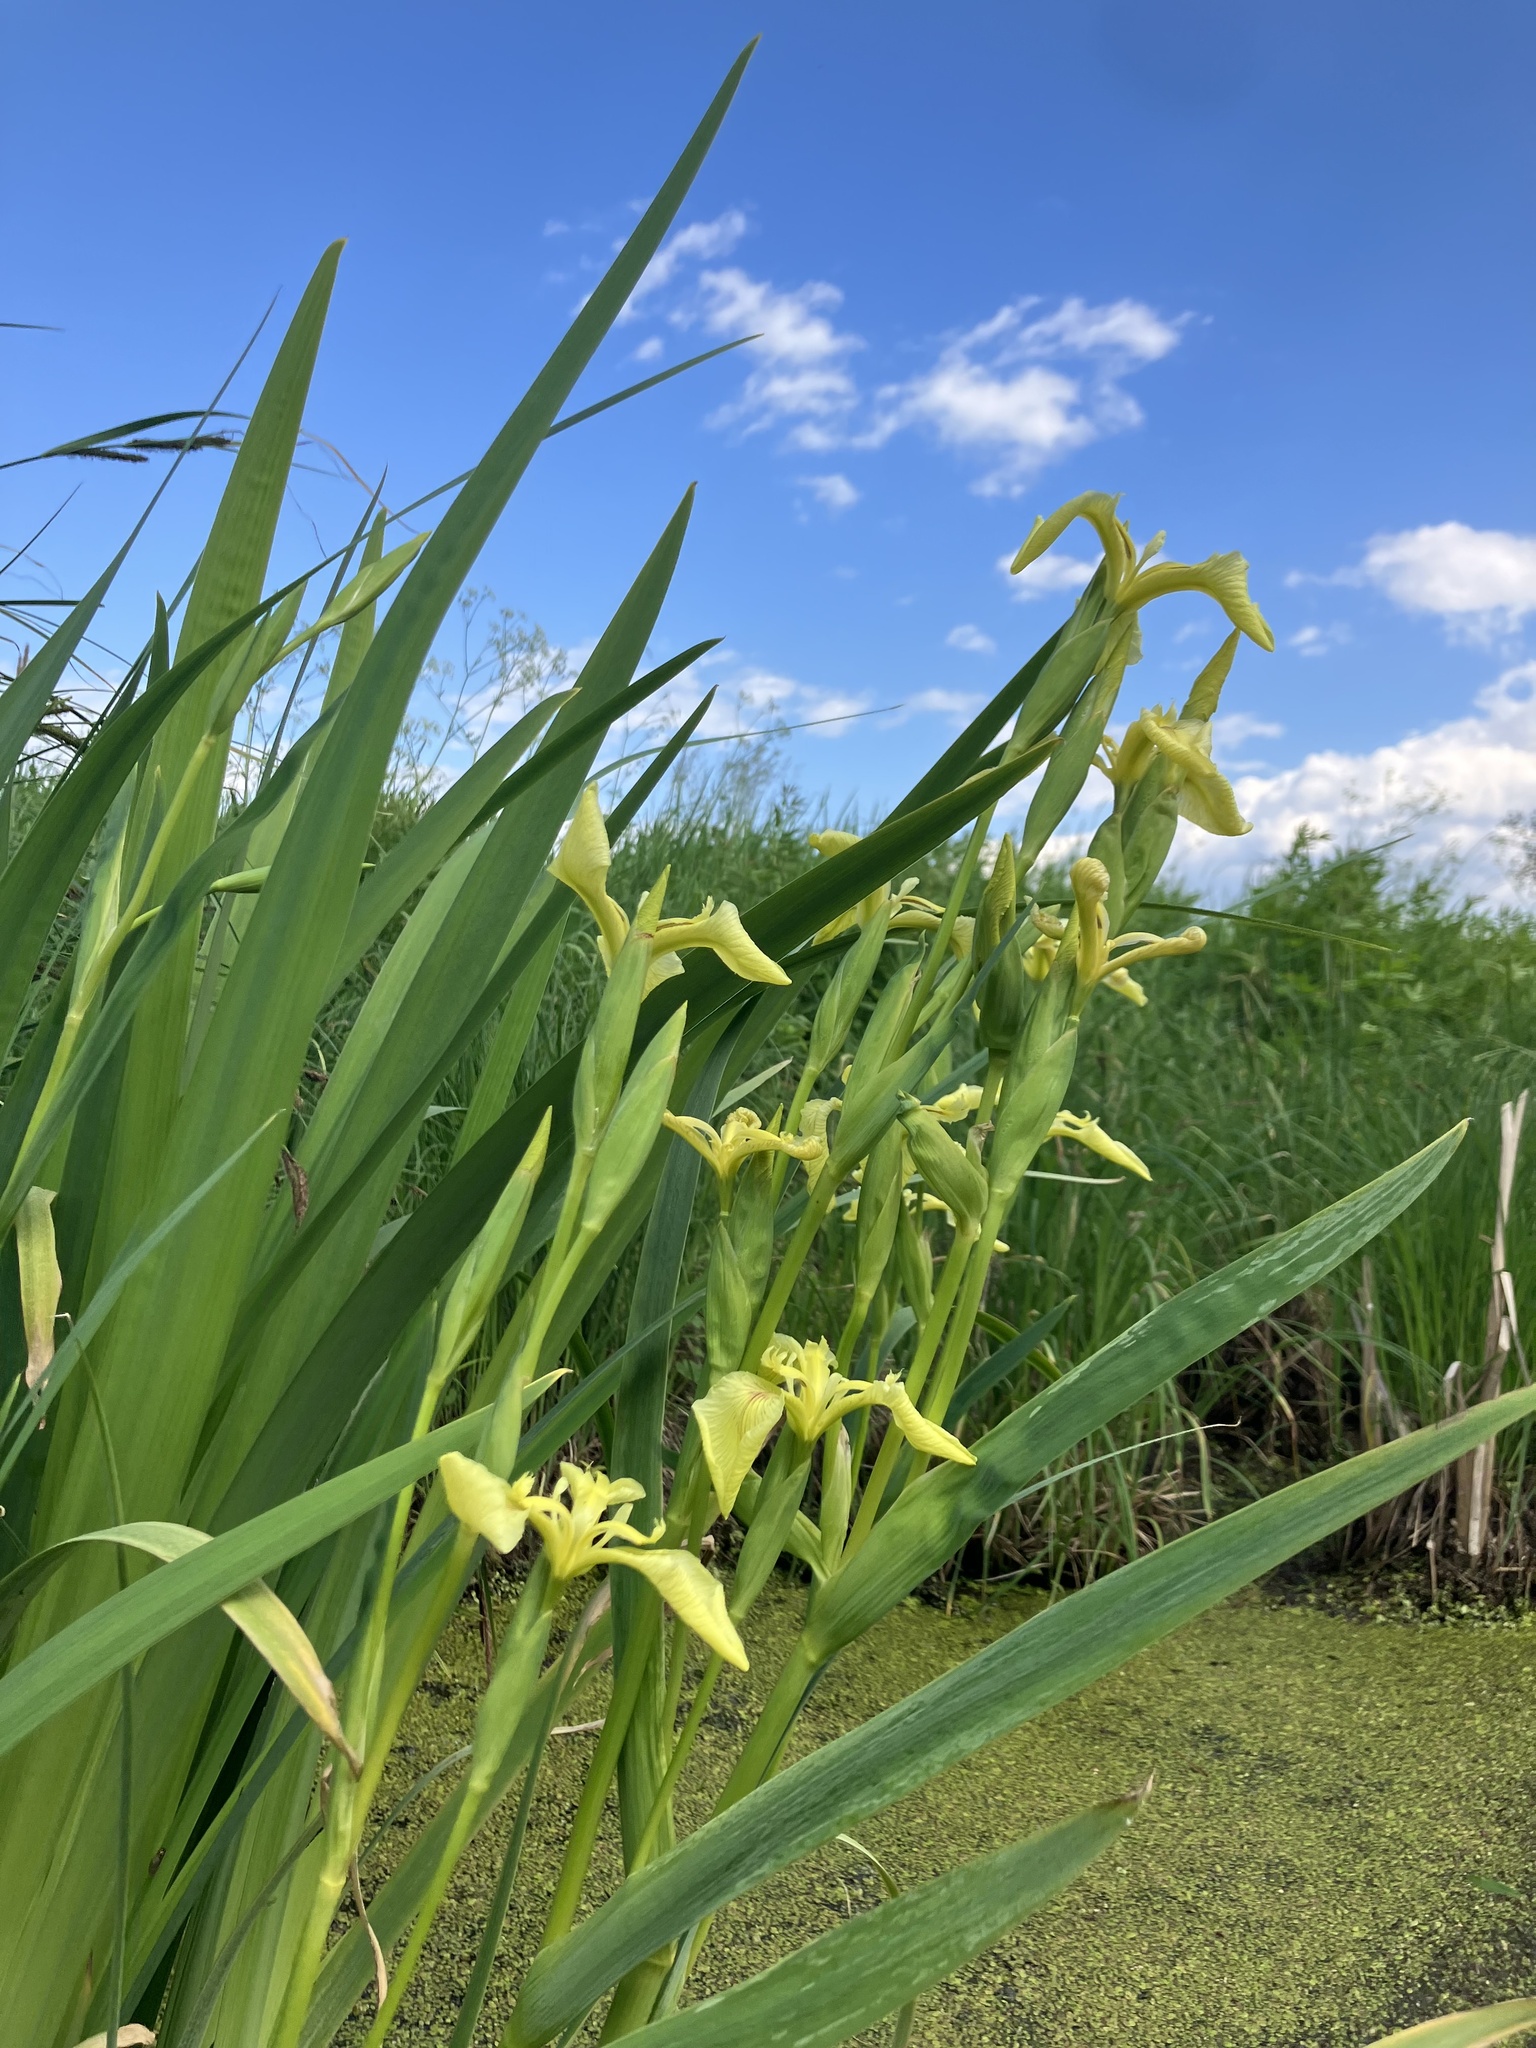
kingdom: Plantae
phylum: Tracheophyta
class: Liliopsida
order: Asparagales
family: Iridaceae
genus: Iris
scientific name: Iris pseudacorus
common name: Yellow flag
